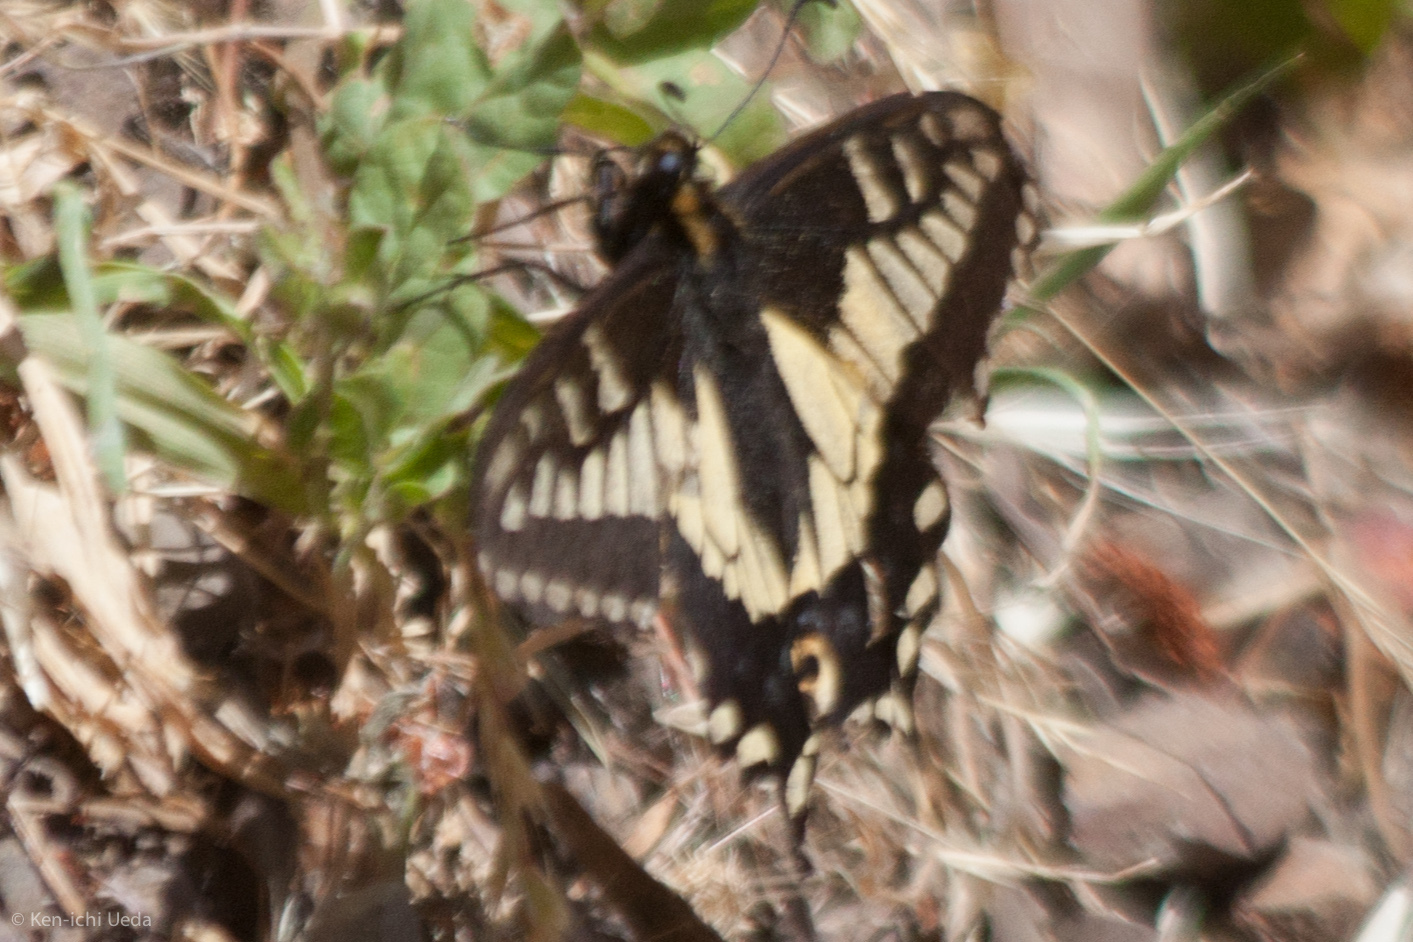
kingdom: Animalia
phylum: Arthropoda
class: Insecta
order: Lepidoptera
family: Papilionidae
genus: Papilio
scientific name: Papilio zelicaon
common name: Anise swallowtail
